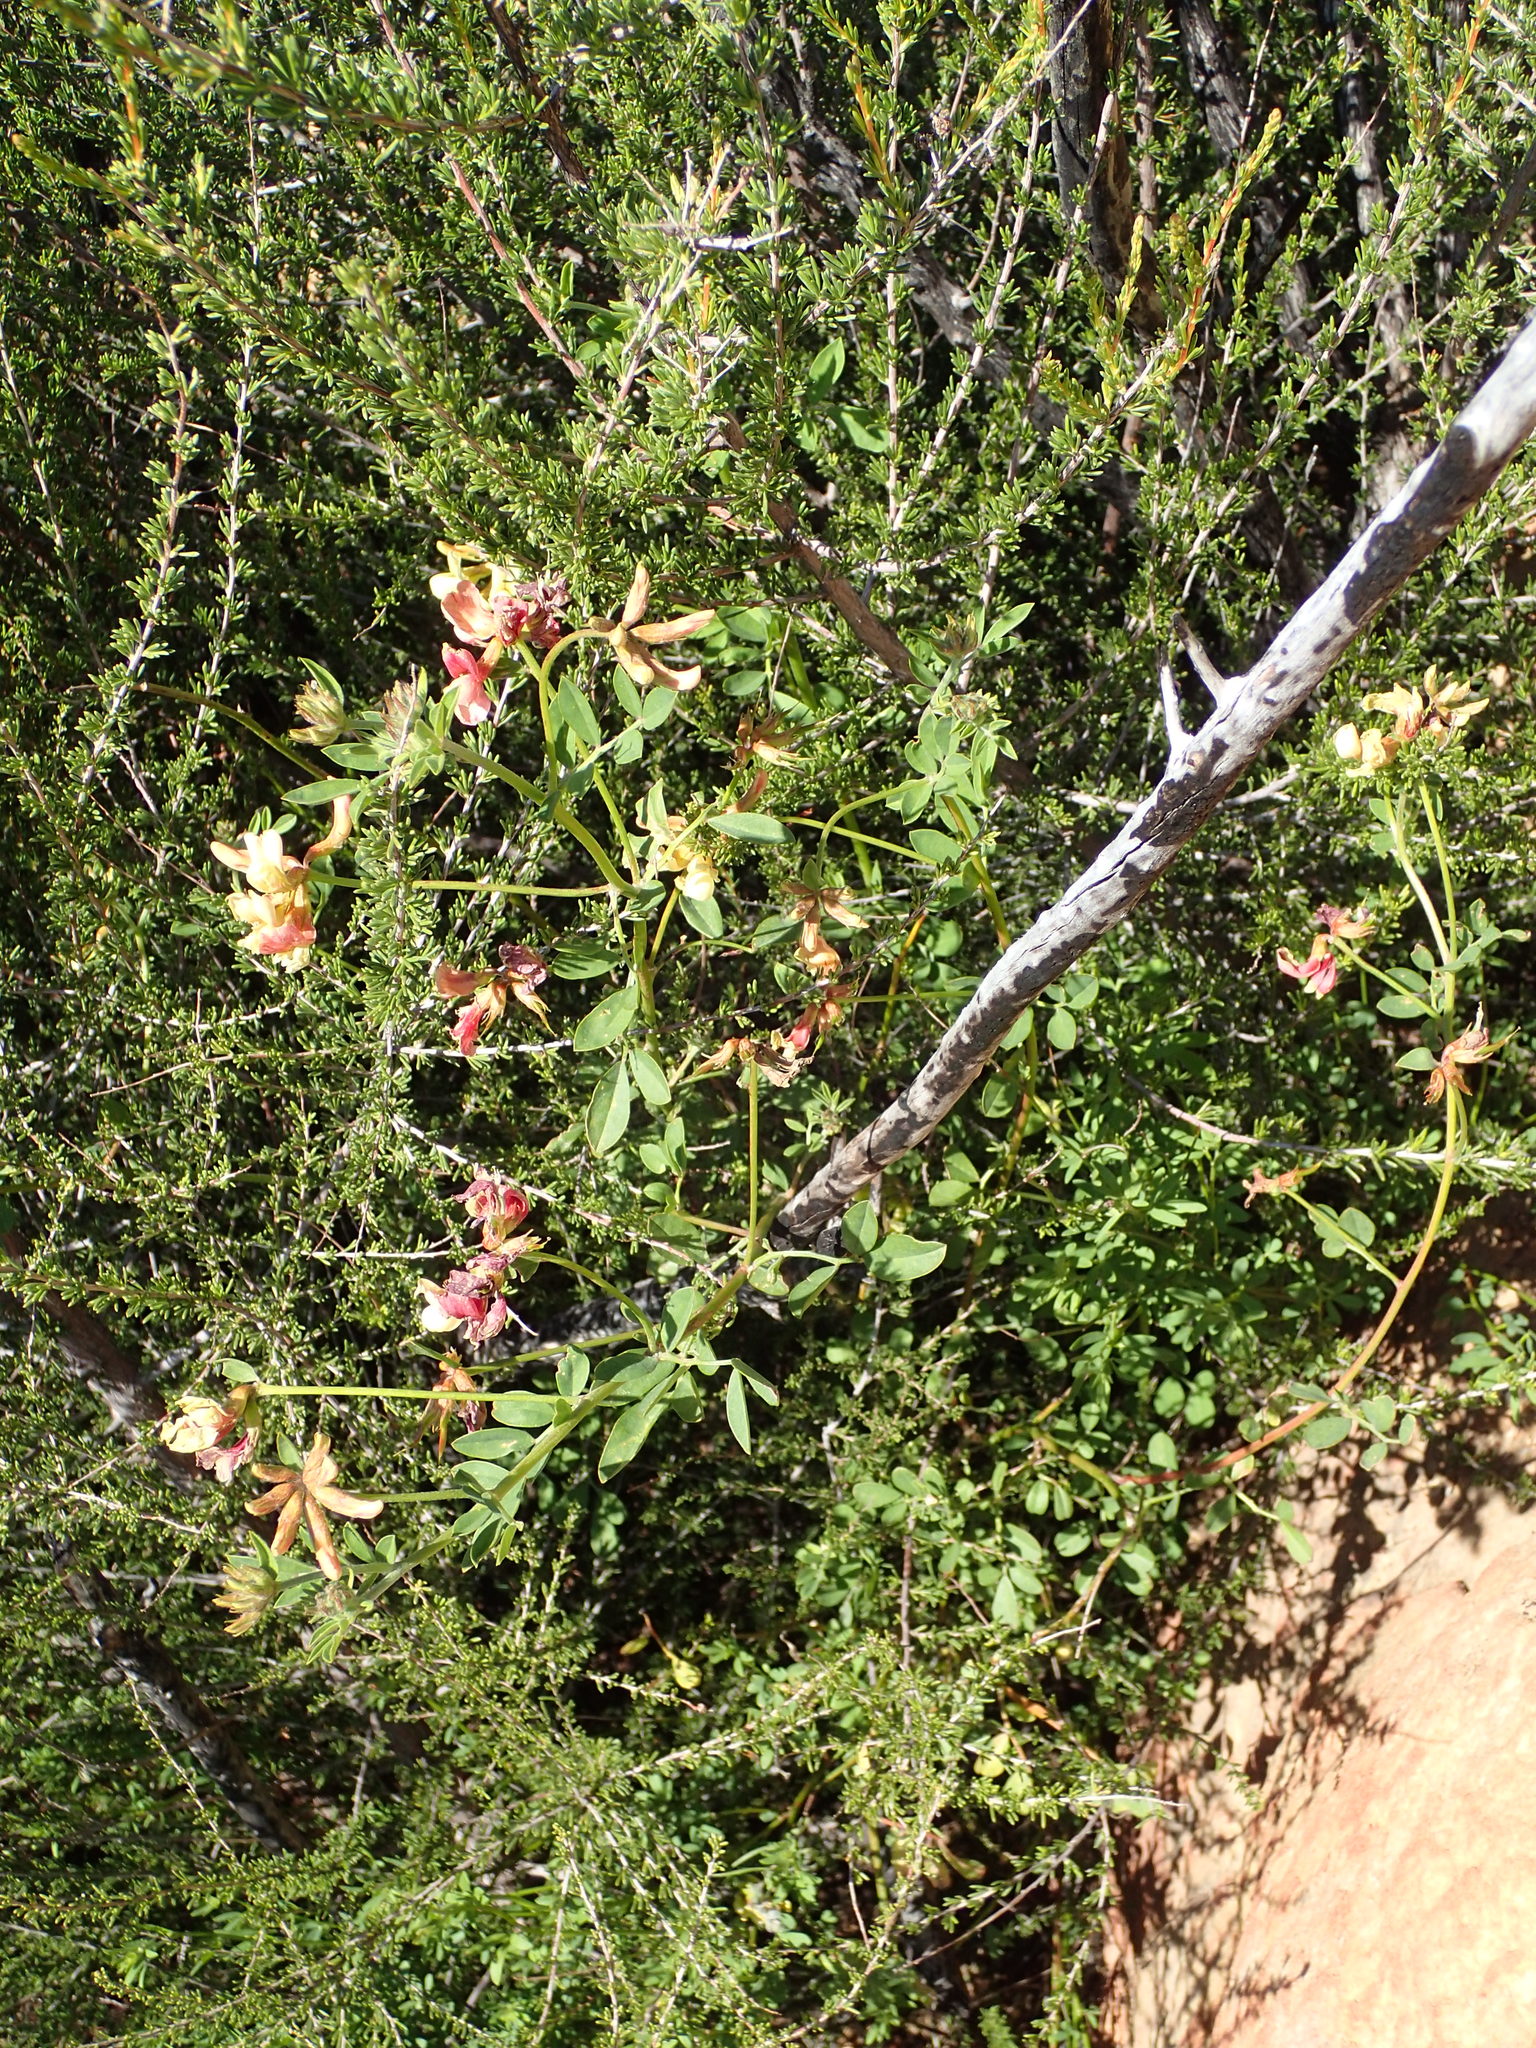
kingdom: Plantae
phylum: Tracheophyta
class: Magnoliopsida
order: Fabales
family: Fabaceae
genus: Acmispon
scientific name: Acmispon grandiflorus
